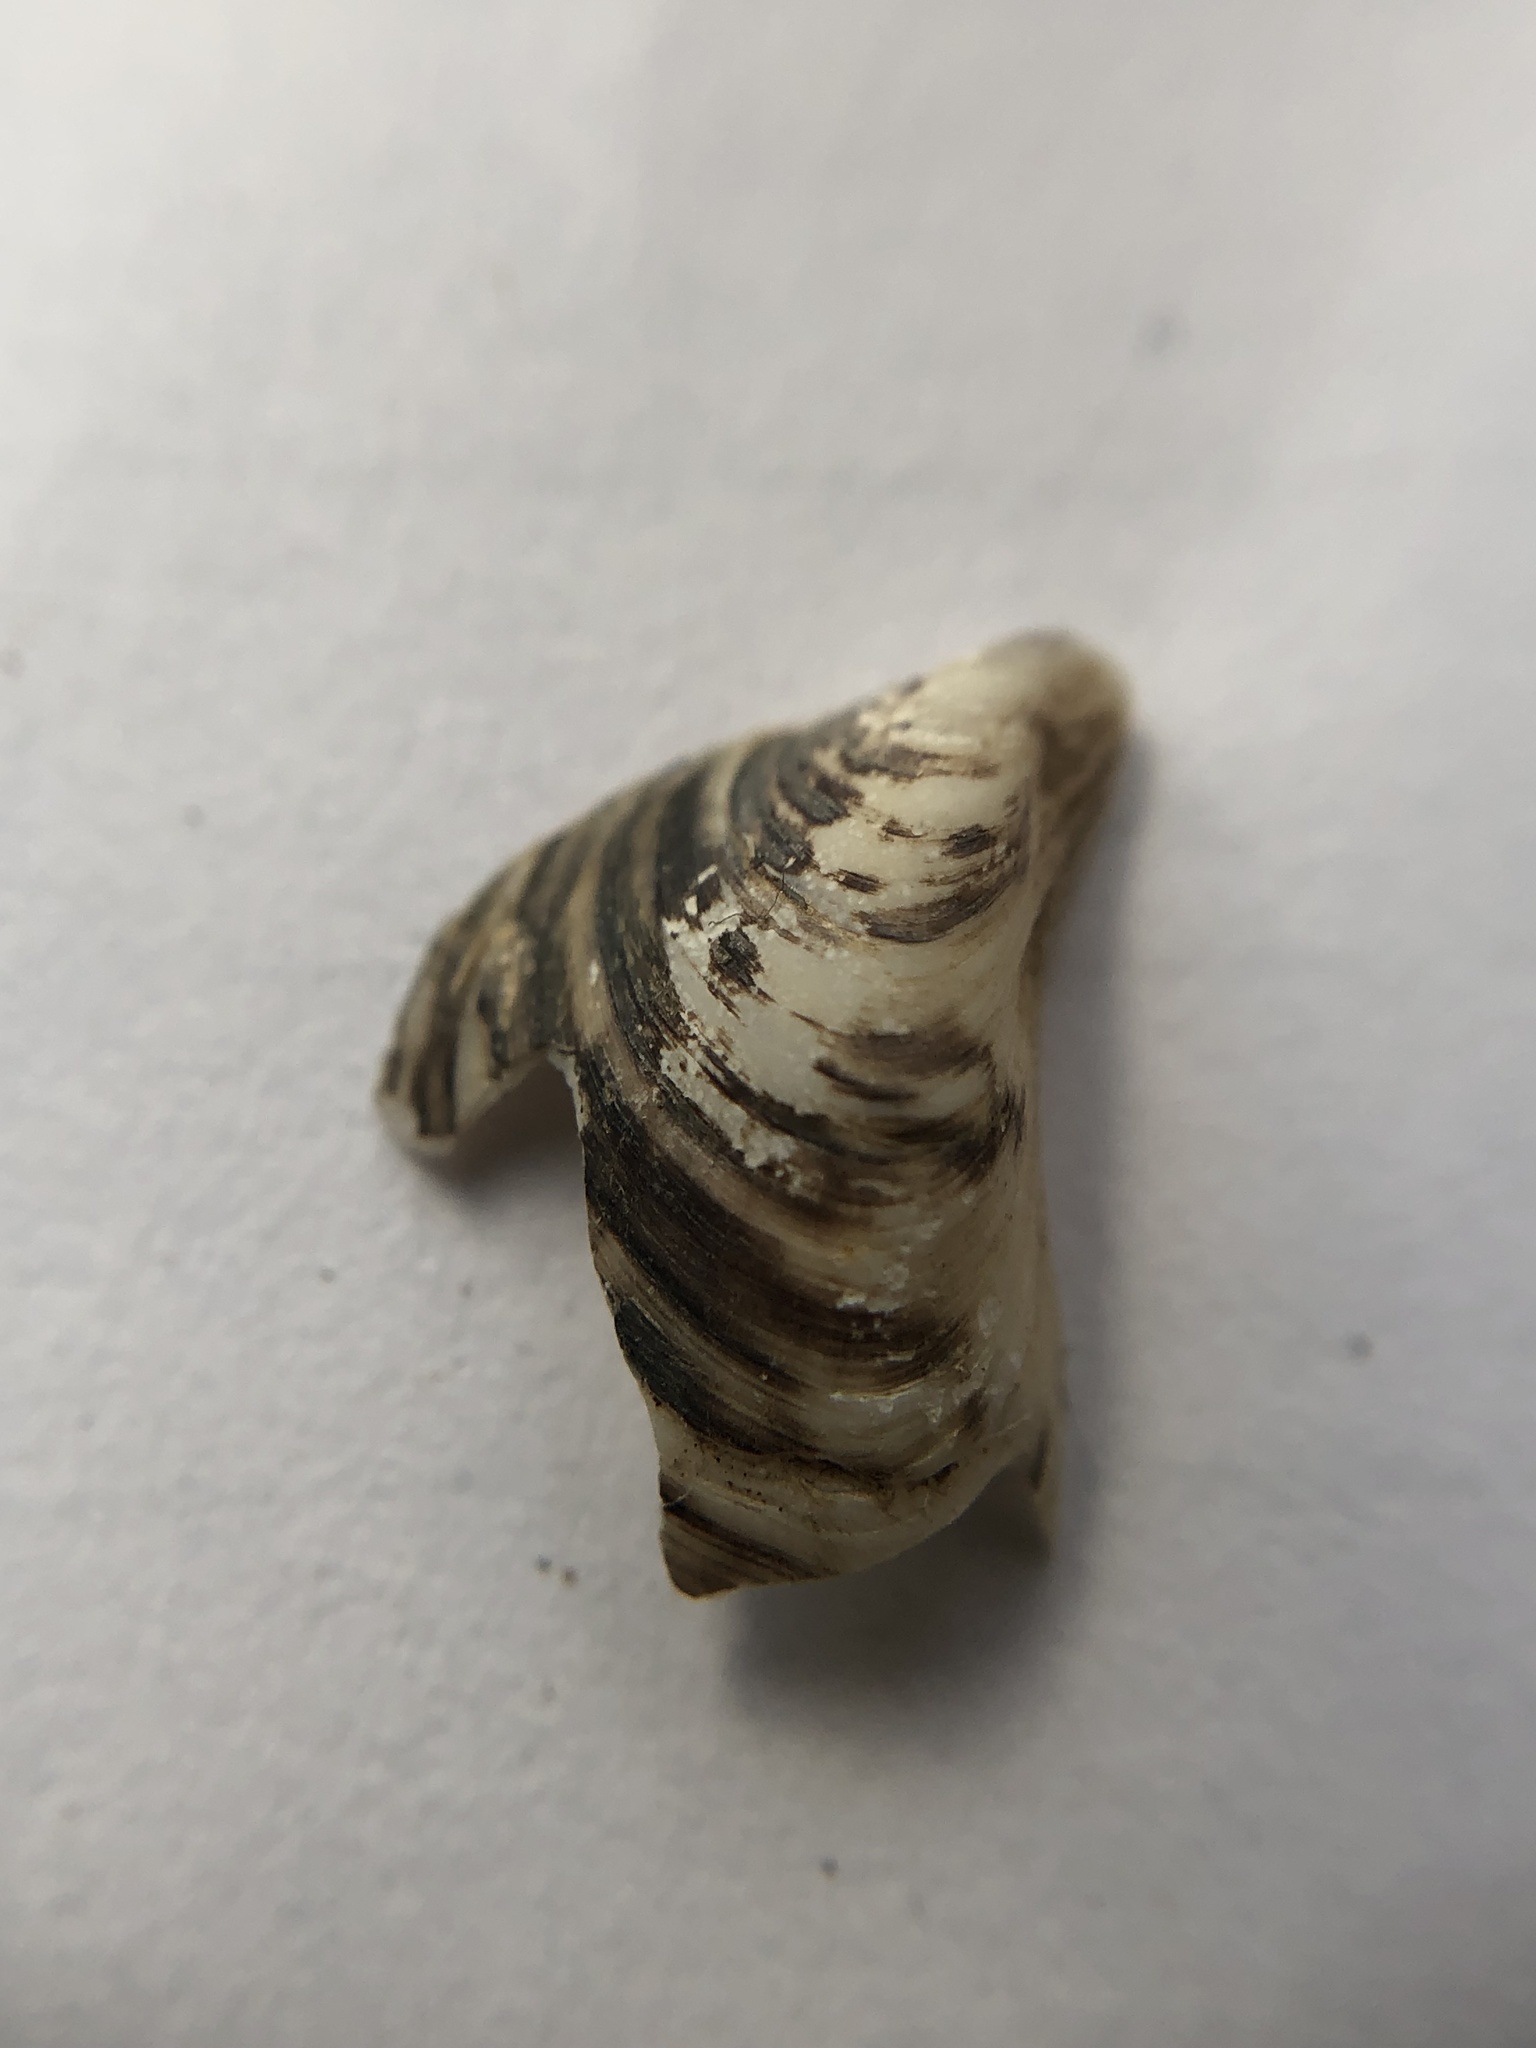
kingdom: Animalia
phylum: Mollusca
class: Bivalvia
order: Myida
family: Dreissenidae
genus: Dreissena
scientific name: Dreissena bugensis
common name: Quagga mussel
